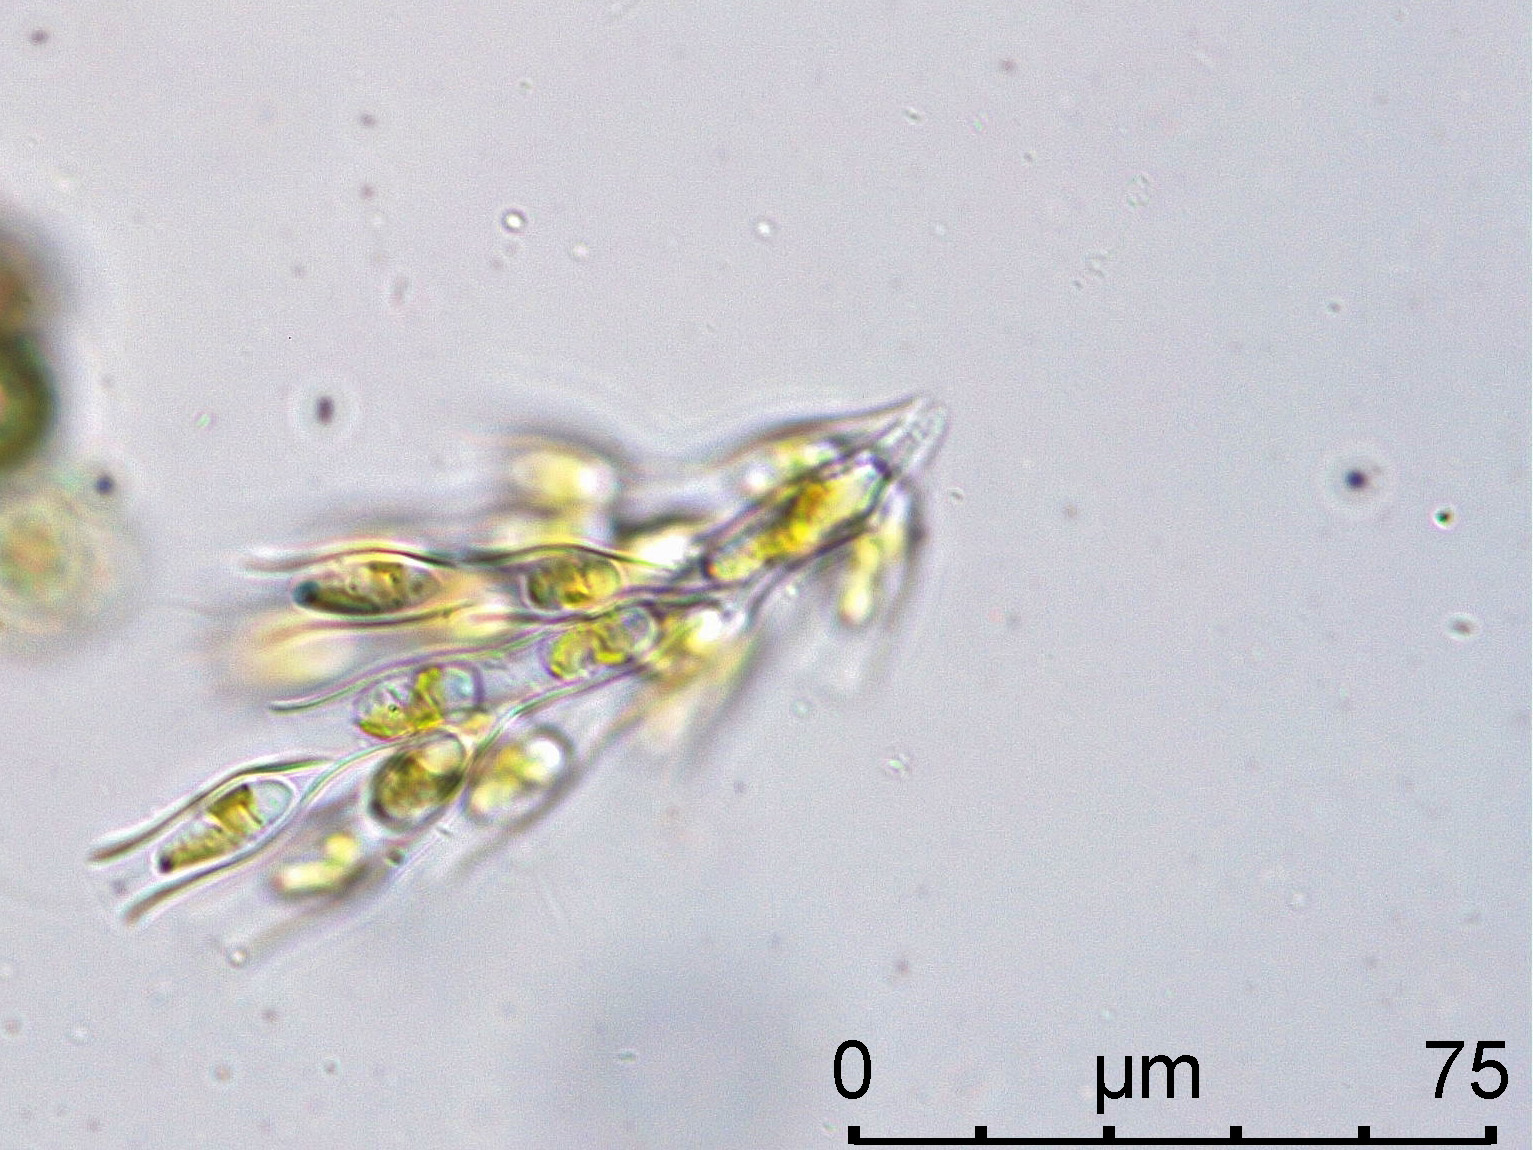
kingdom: Chromista
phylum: Ochrophyta
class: Chrysophyceae
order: Chromulinales
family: Dinobryaceae
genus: Dinobryon
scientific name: Dinobryon sertularia
